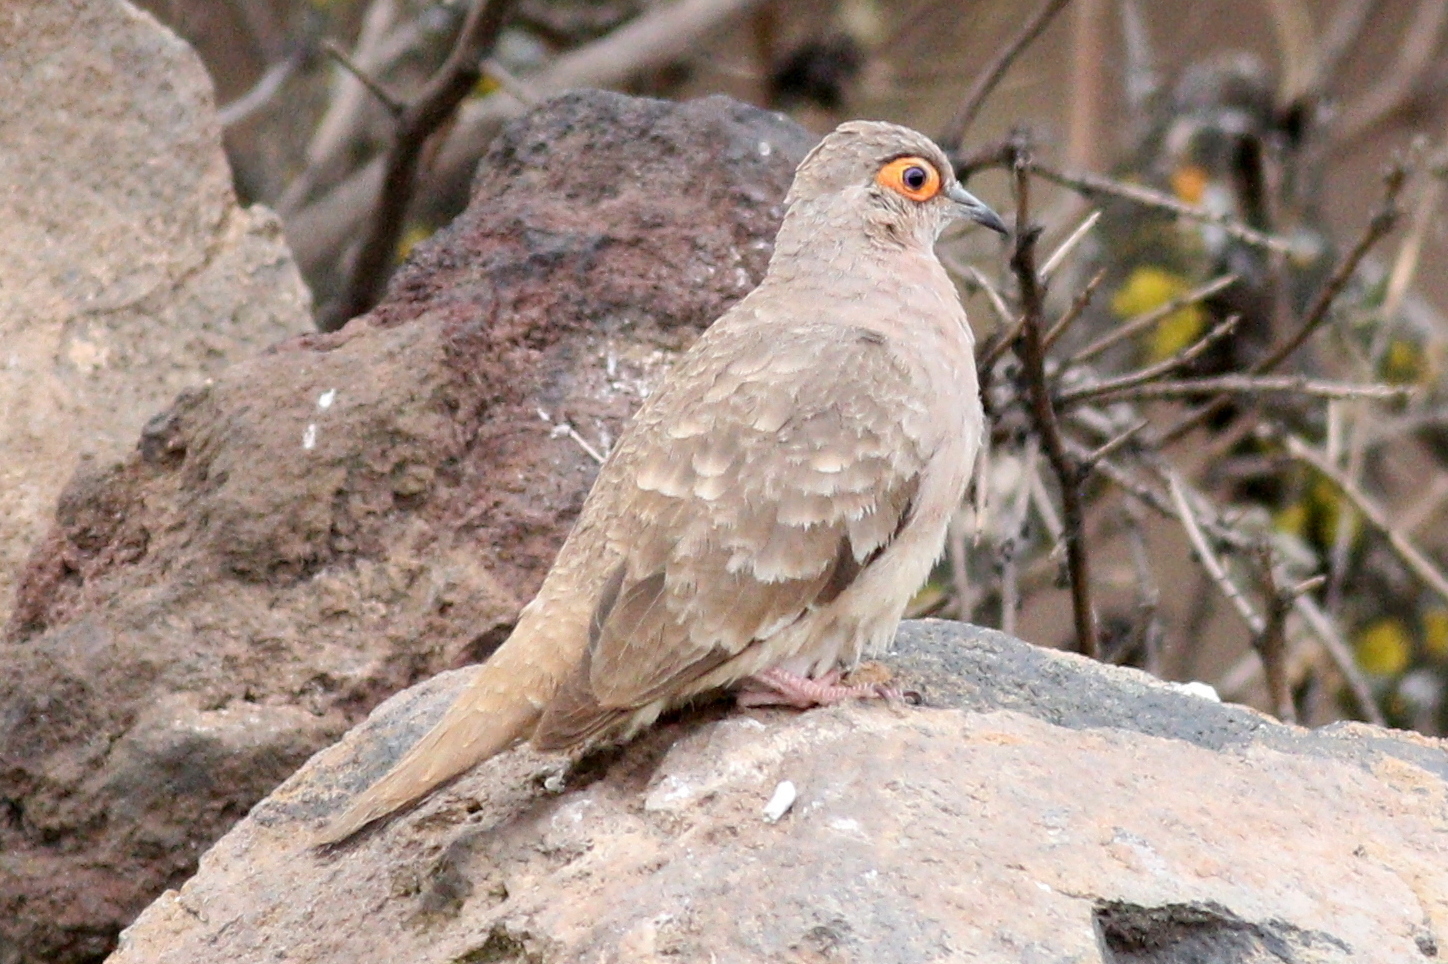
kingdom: Animalia
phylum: Chordata
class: Aves
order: Columbiformes
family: Columbidae
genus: Metriopelia
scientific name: Metriopelia ceciliae
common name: Bare-faced ground dove
